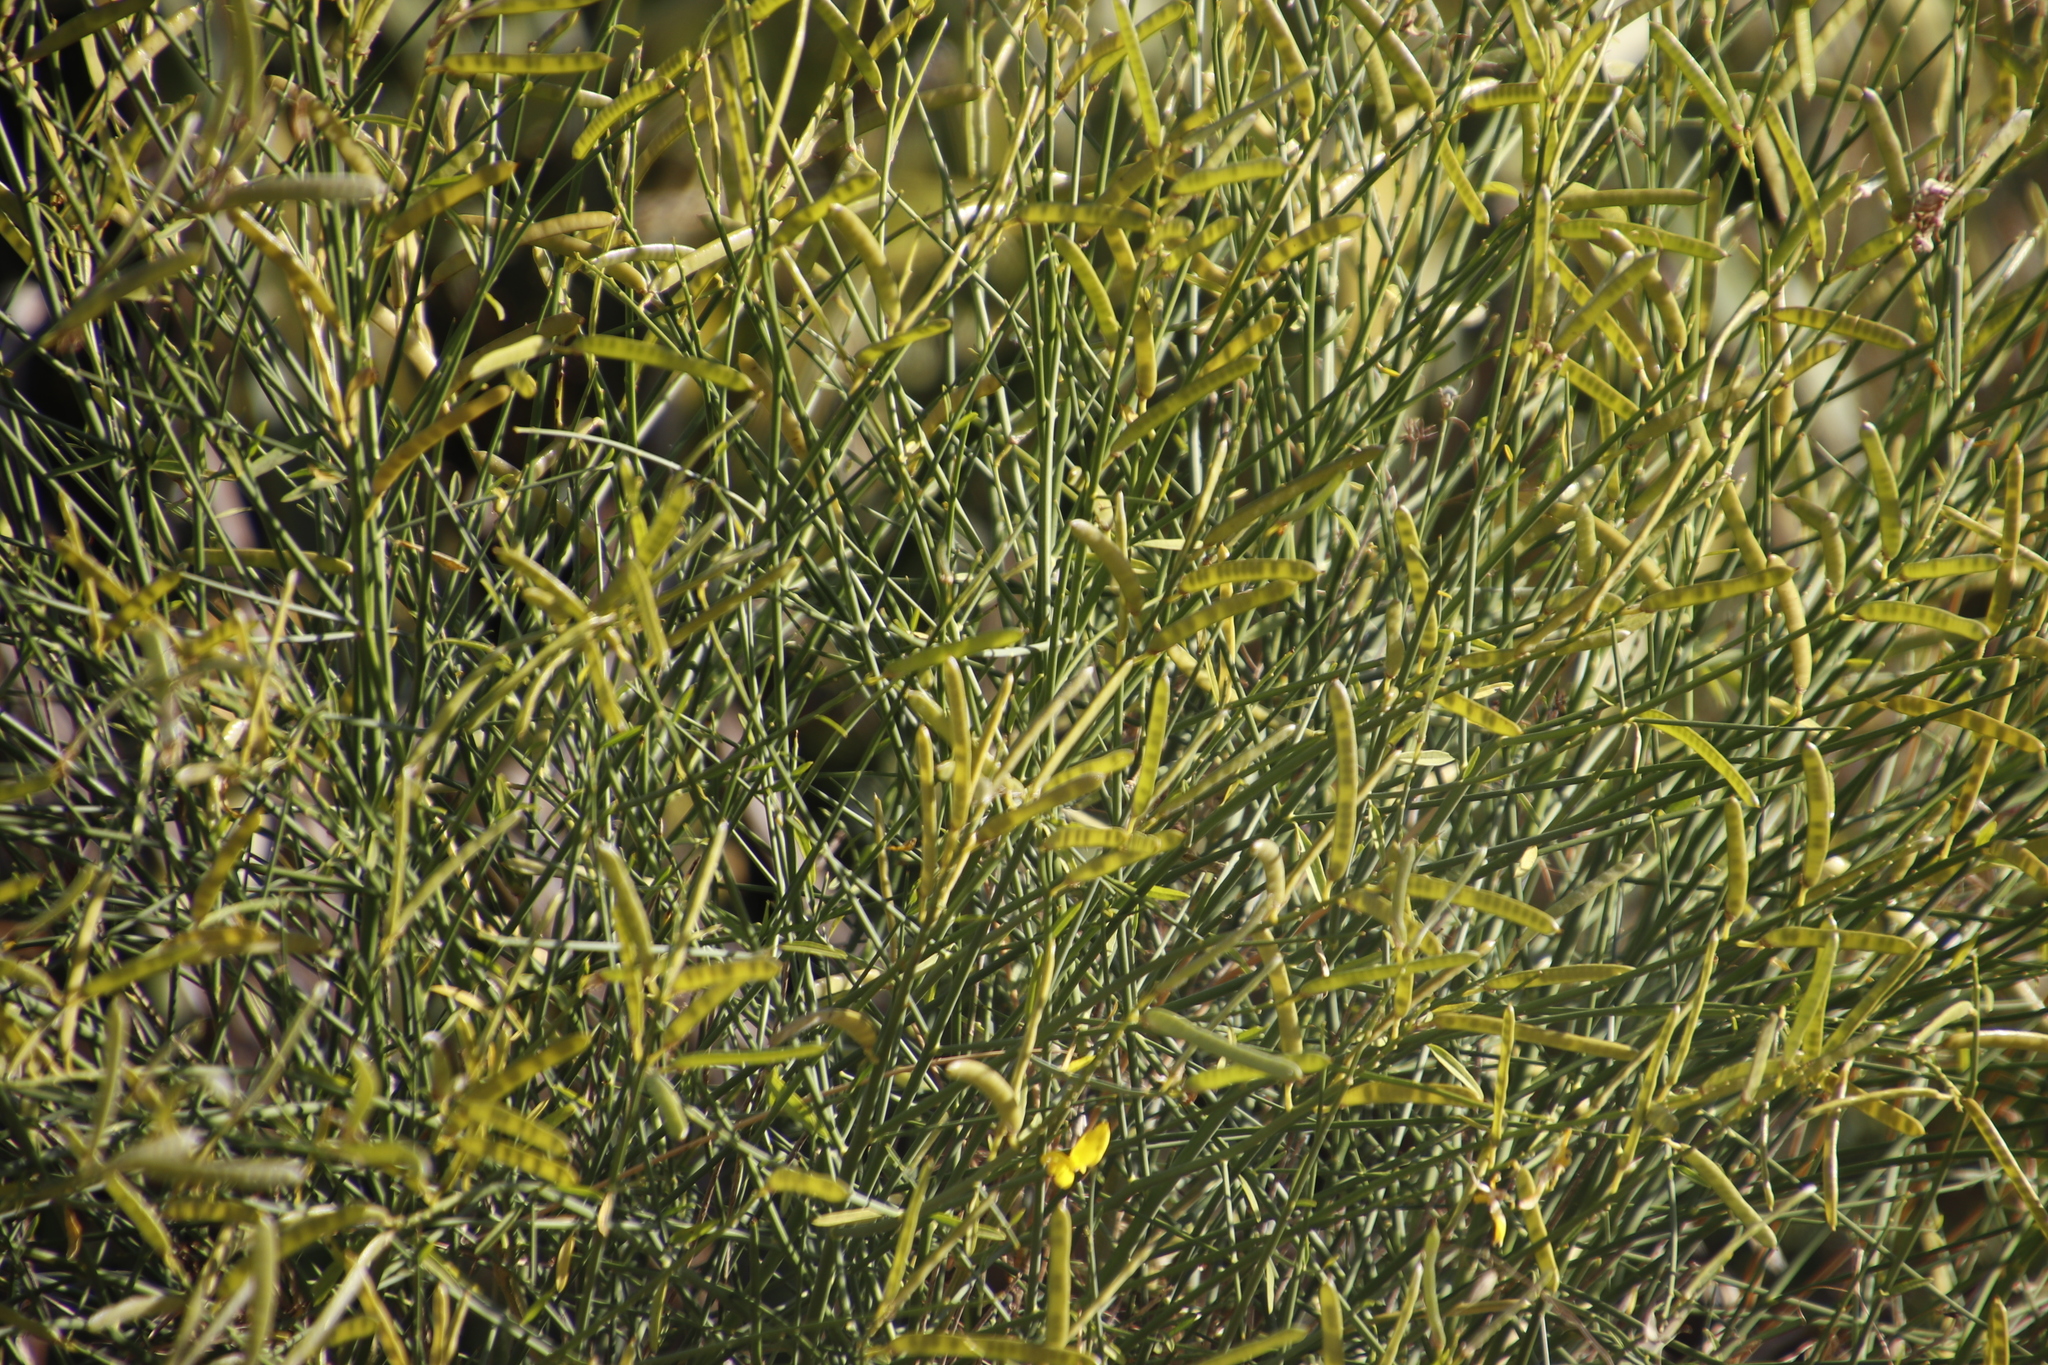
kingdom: Plantae
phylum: Tracheophyta
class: Magnoliopsida
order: Fabales
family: Fabaceae
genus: Spartium
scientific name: Spartium junceum
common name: Spanish broom
